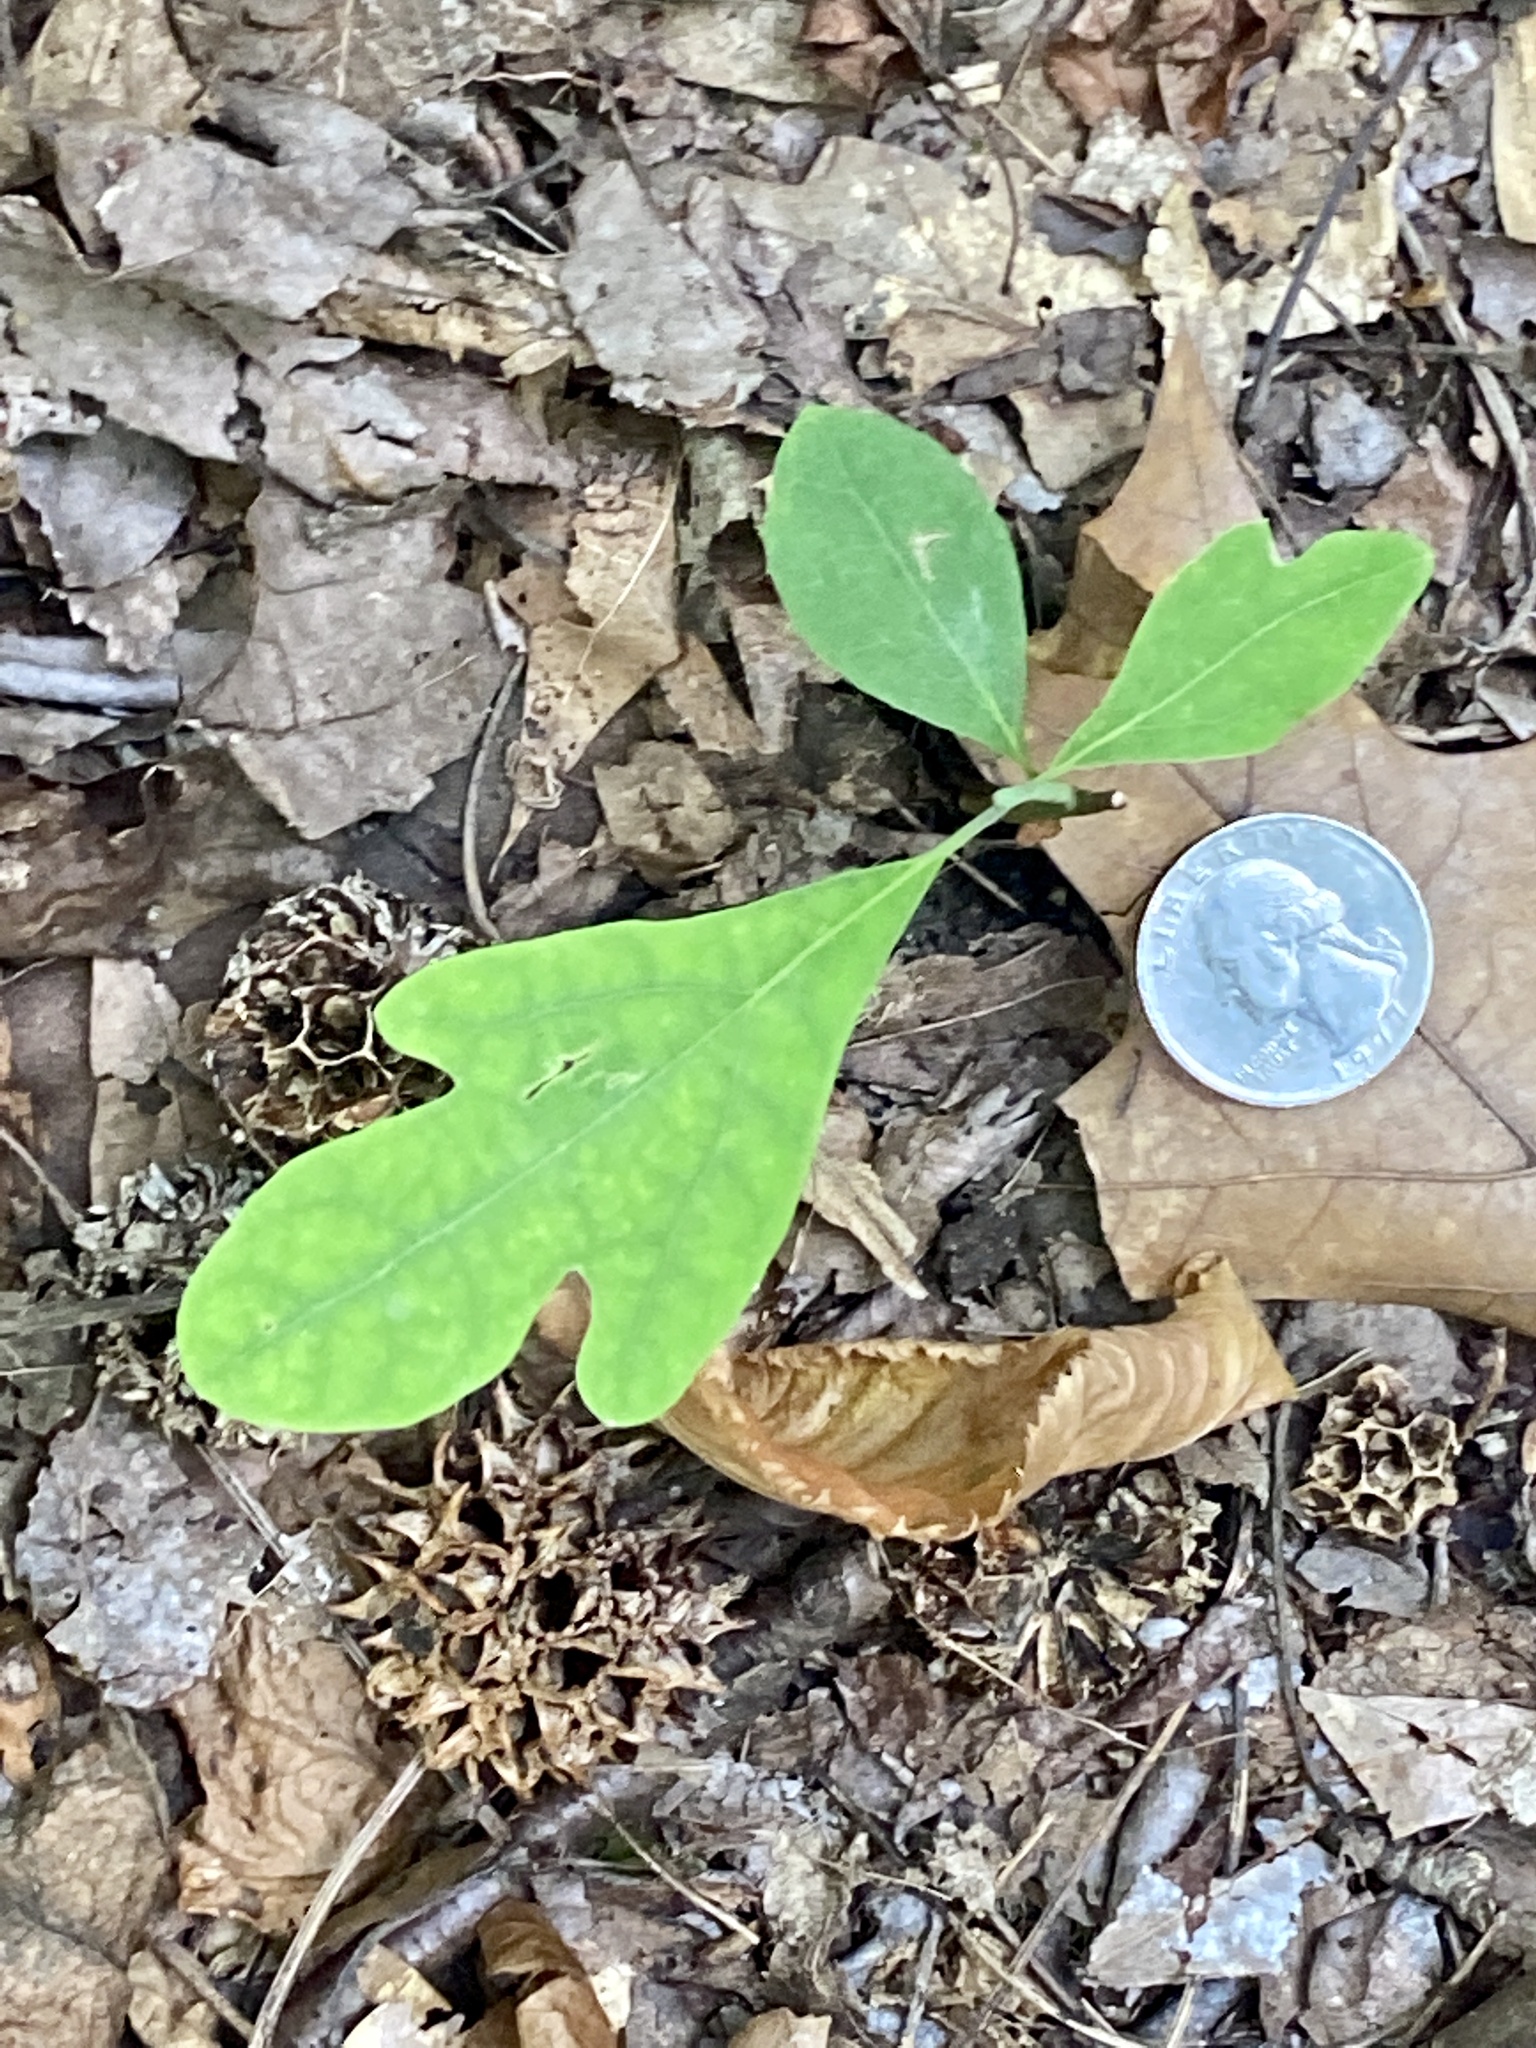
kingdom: Plantae
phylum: Tracheophyta
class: Magnoliopsida
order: Laurales
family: Lauraceae
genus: Sassafras
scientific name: Sassafras albidum
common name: Sassafras
